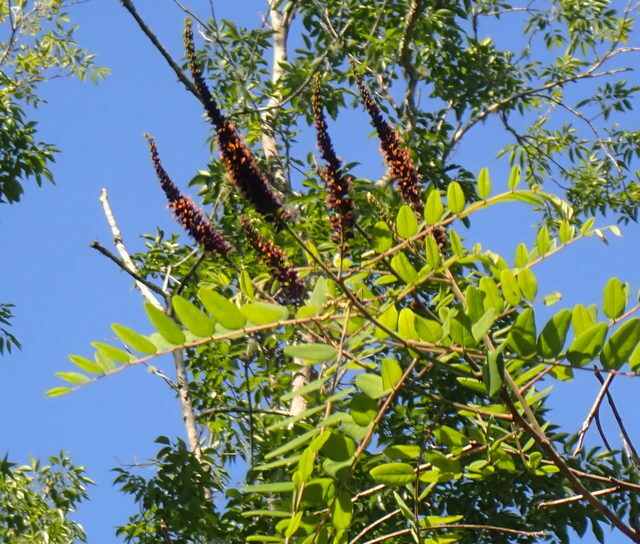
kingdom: Plantae
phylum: Tracheophyta
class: Magnoliopsida
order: Fabales
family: Fabaceae
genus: Amorpha
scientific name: Amorpha fruticosa
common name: False indigo
